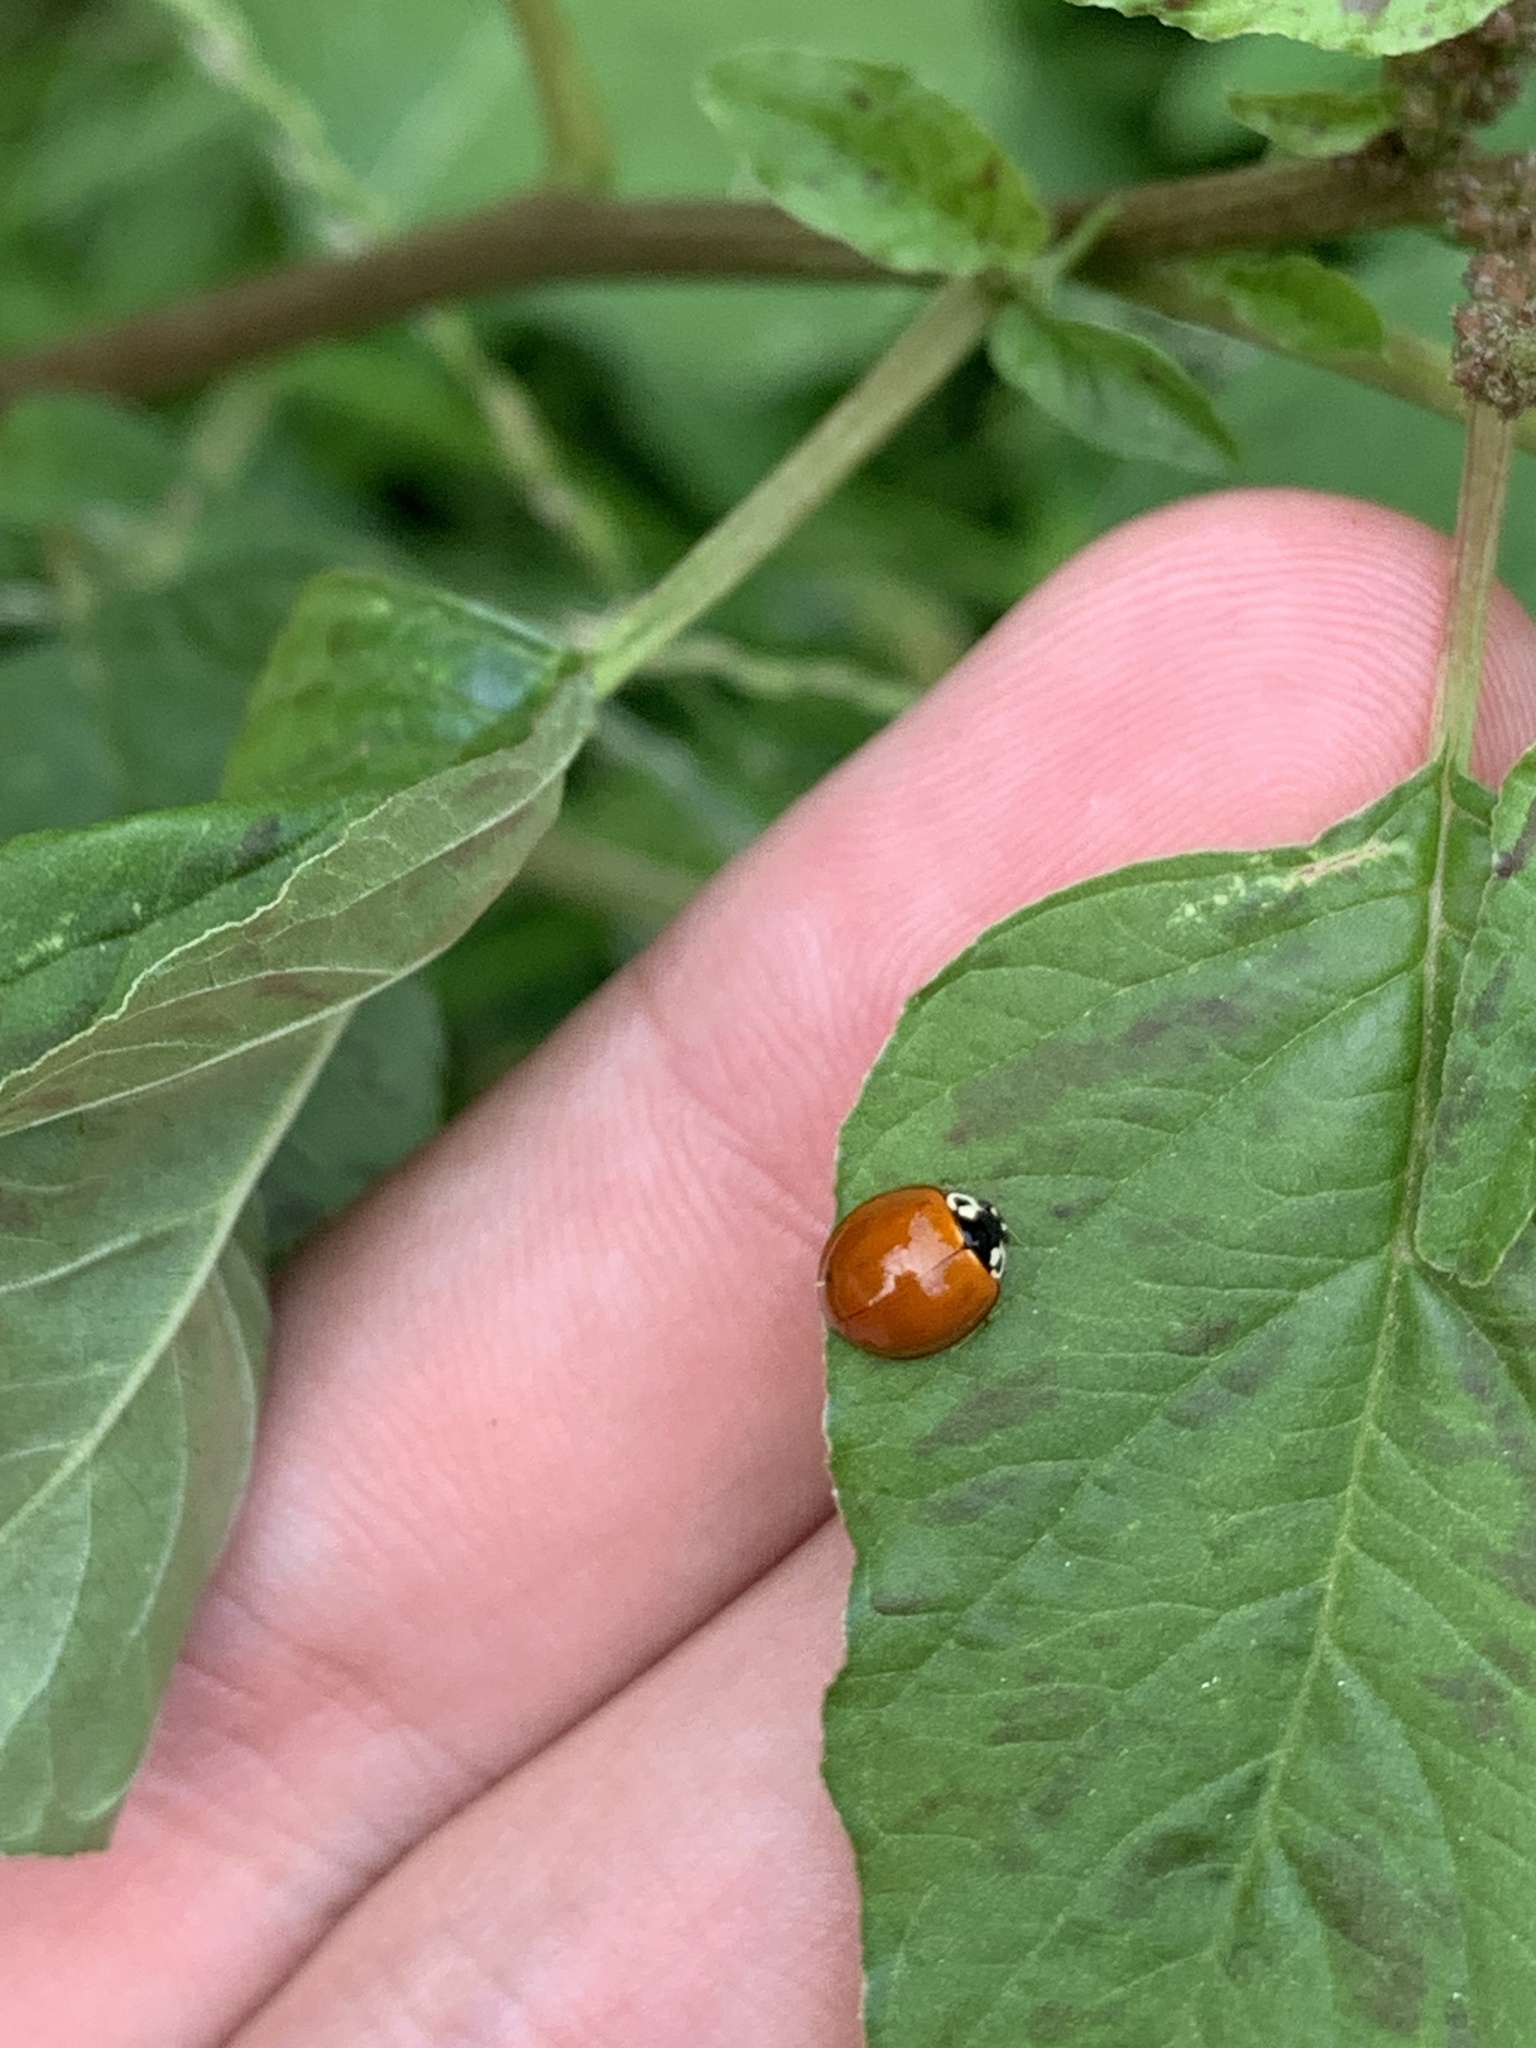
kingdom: Animalia
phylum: Arthropoda
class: Insecta
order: Coleoptera
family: Coccinellidae
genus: Cycloneda
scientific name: Cycloneda sanguinea
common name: Ladybird beetle
